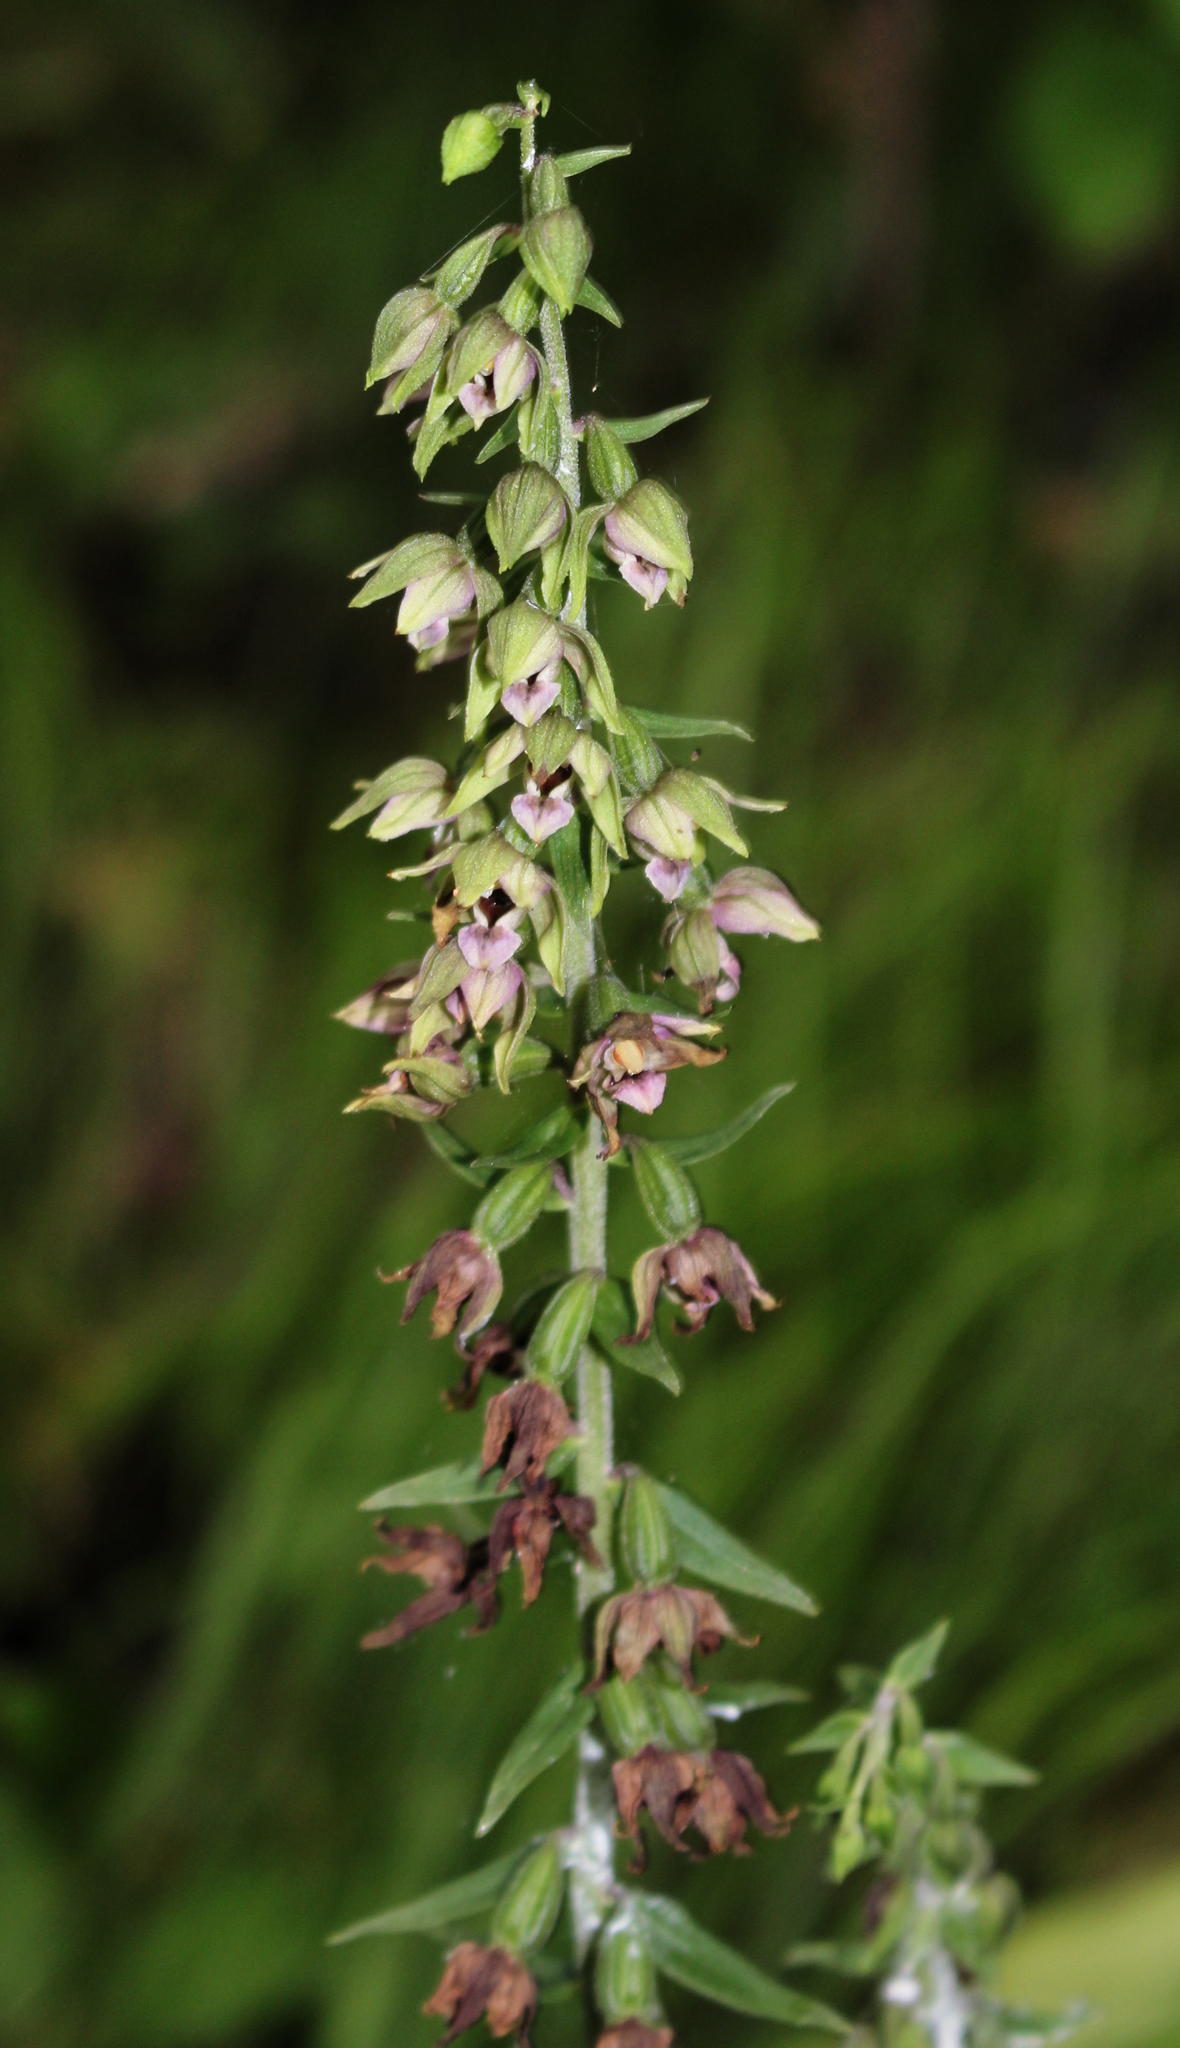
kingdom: Plantae
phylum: Tracheophyta
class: Liliopsida
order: Asparagales
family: Orchidaceae
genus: Epipactis
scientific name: Epipactis helleborine
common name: Broad-leaved helleborine
